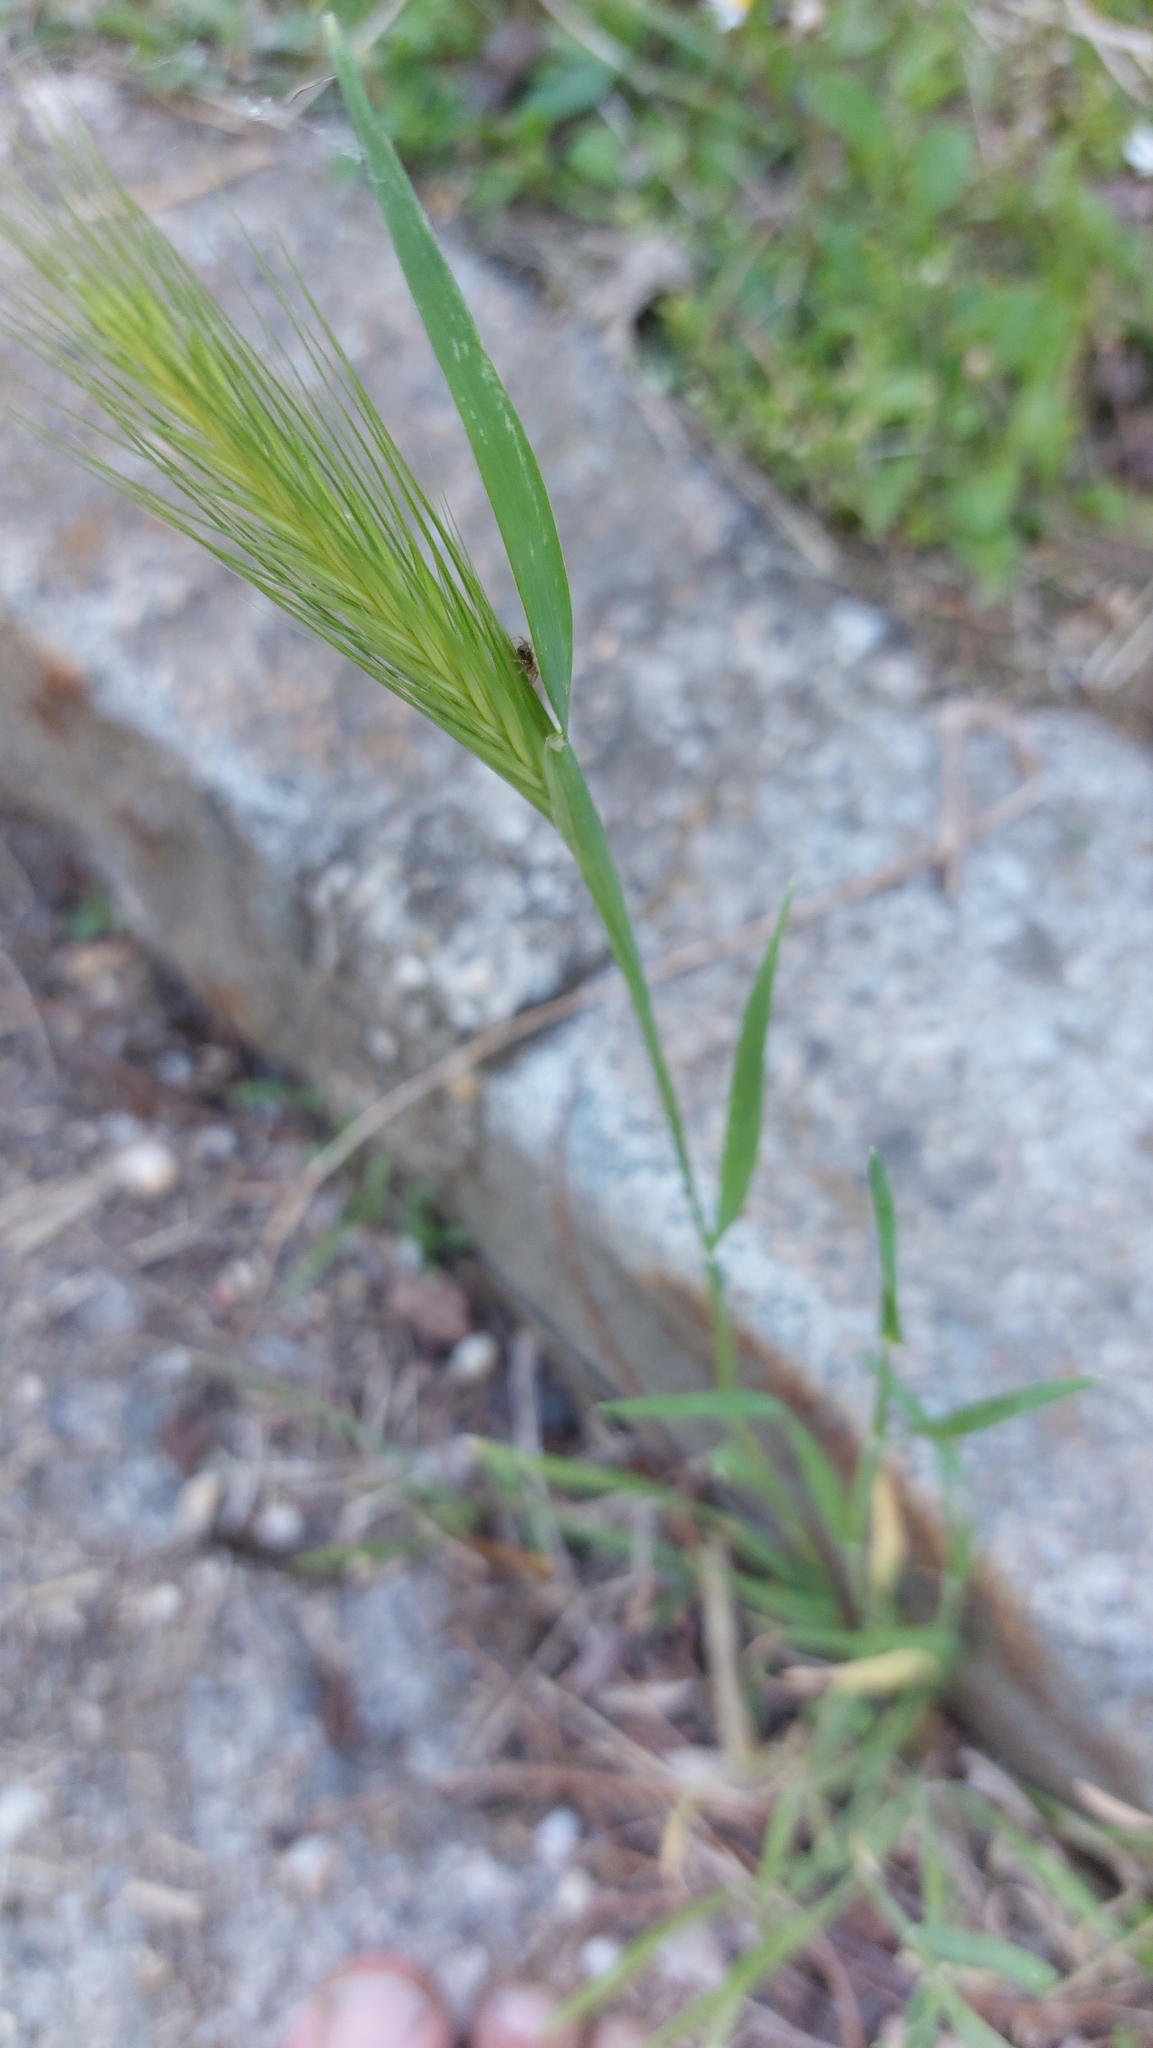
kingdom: Plantae
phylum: Tracheophyta
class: Liliopsida
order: Poales
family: Poaceae
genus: Hordeum
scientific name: Hordeum murinum
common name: Wall barley
